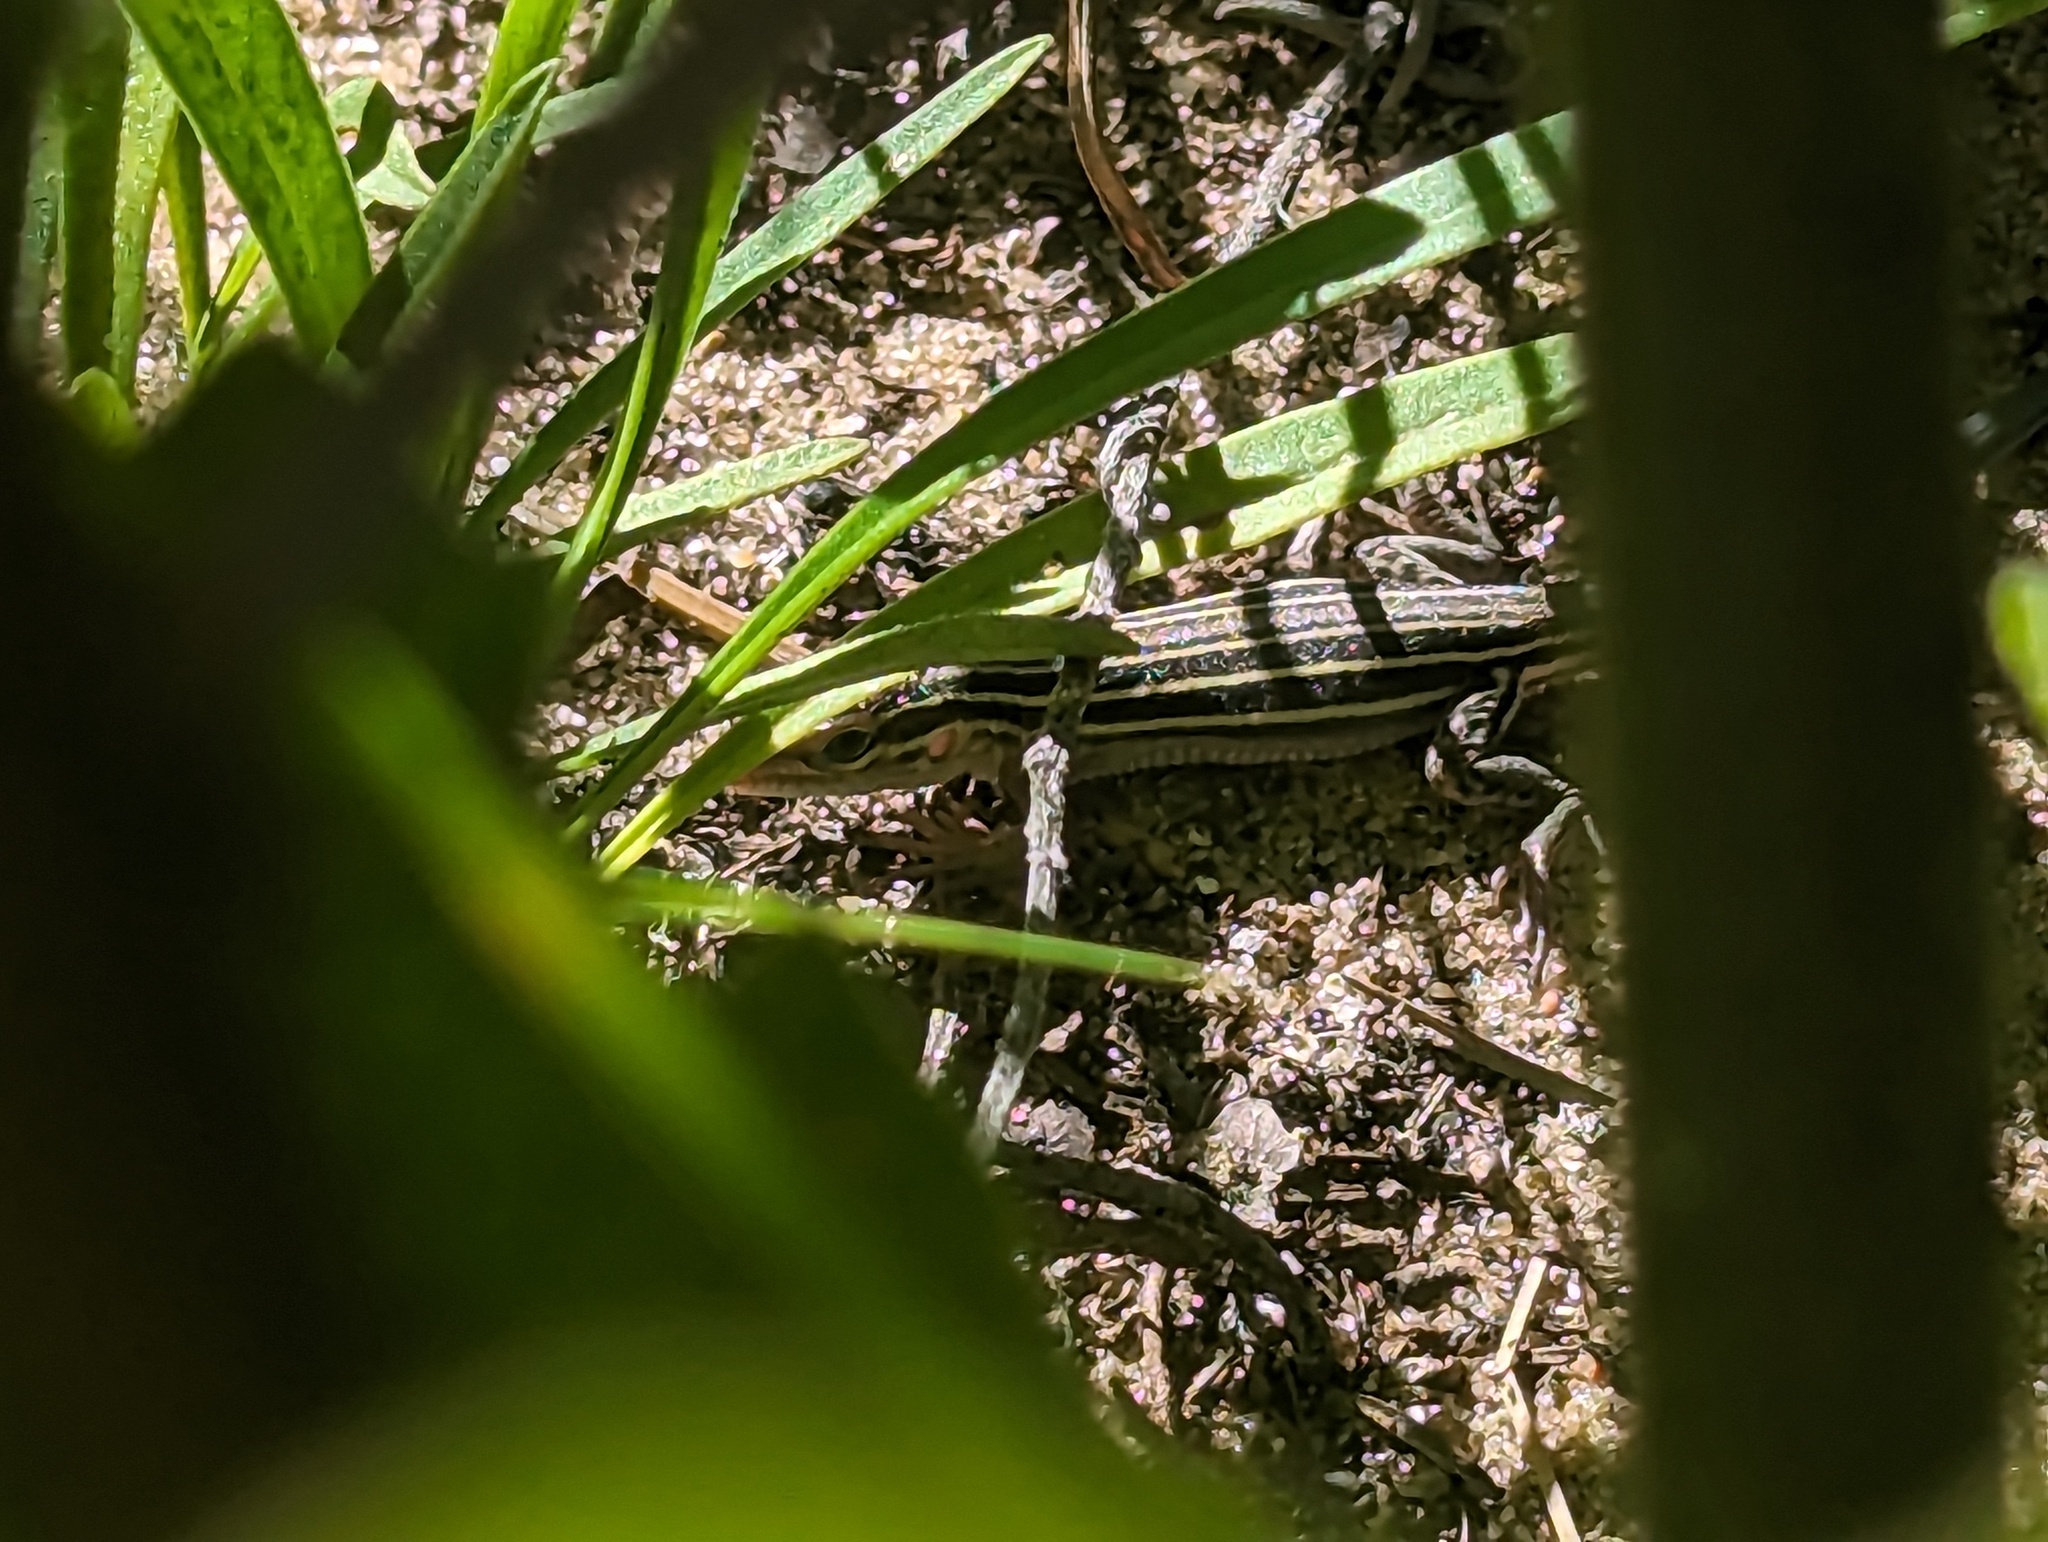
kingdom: Animalia
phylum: Chordata
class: Squamata
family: Teiidae
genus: Aspidoscelis
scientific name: Aspidoscelis sexlineatus
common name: Six-lined racerunner
